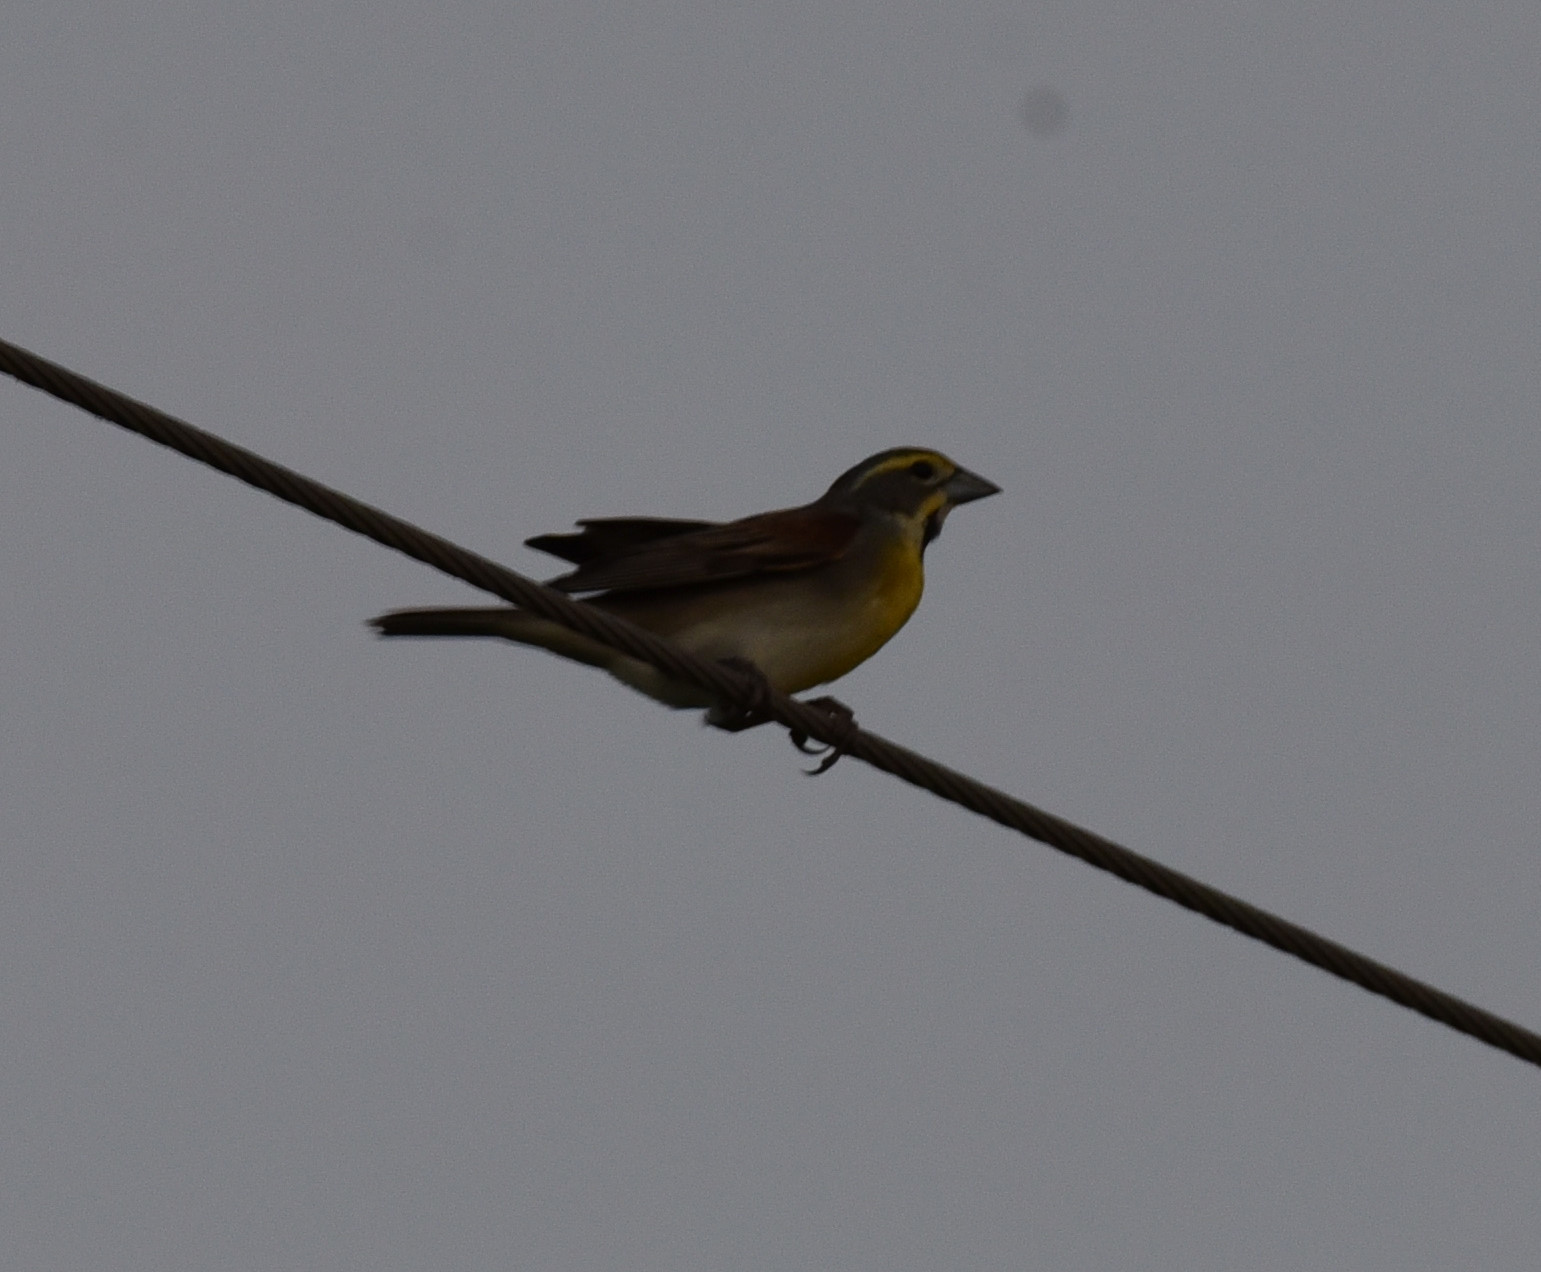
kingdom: Animalia
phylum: Chordata
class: Aves
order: Passeriformes
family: Cardinalidae
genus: Spiza
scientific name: Spiza americana
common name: Dickcissel
